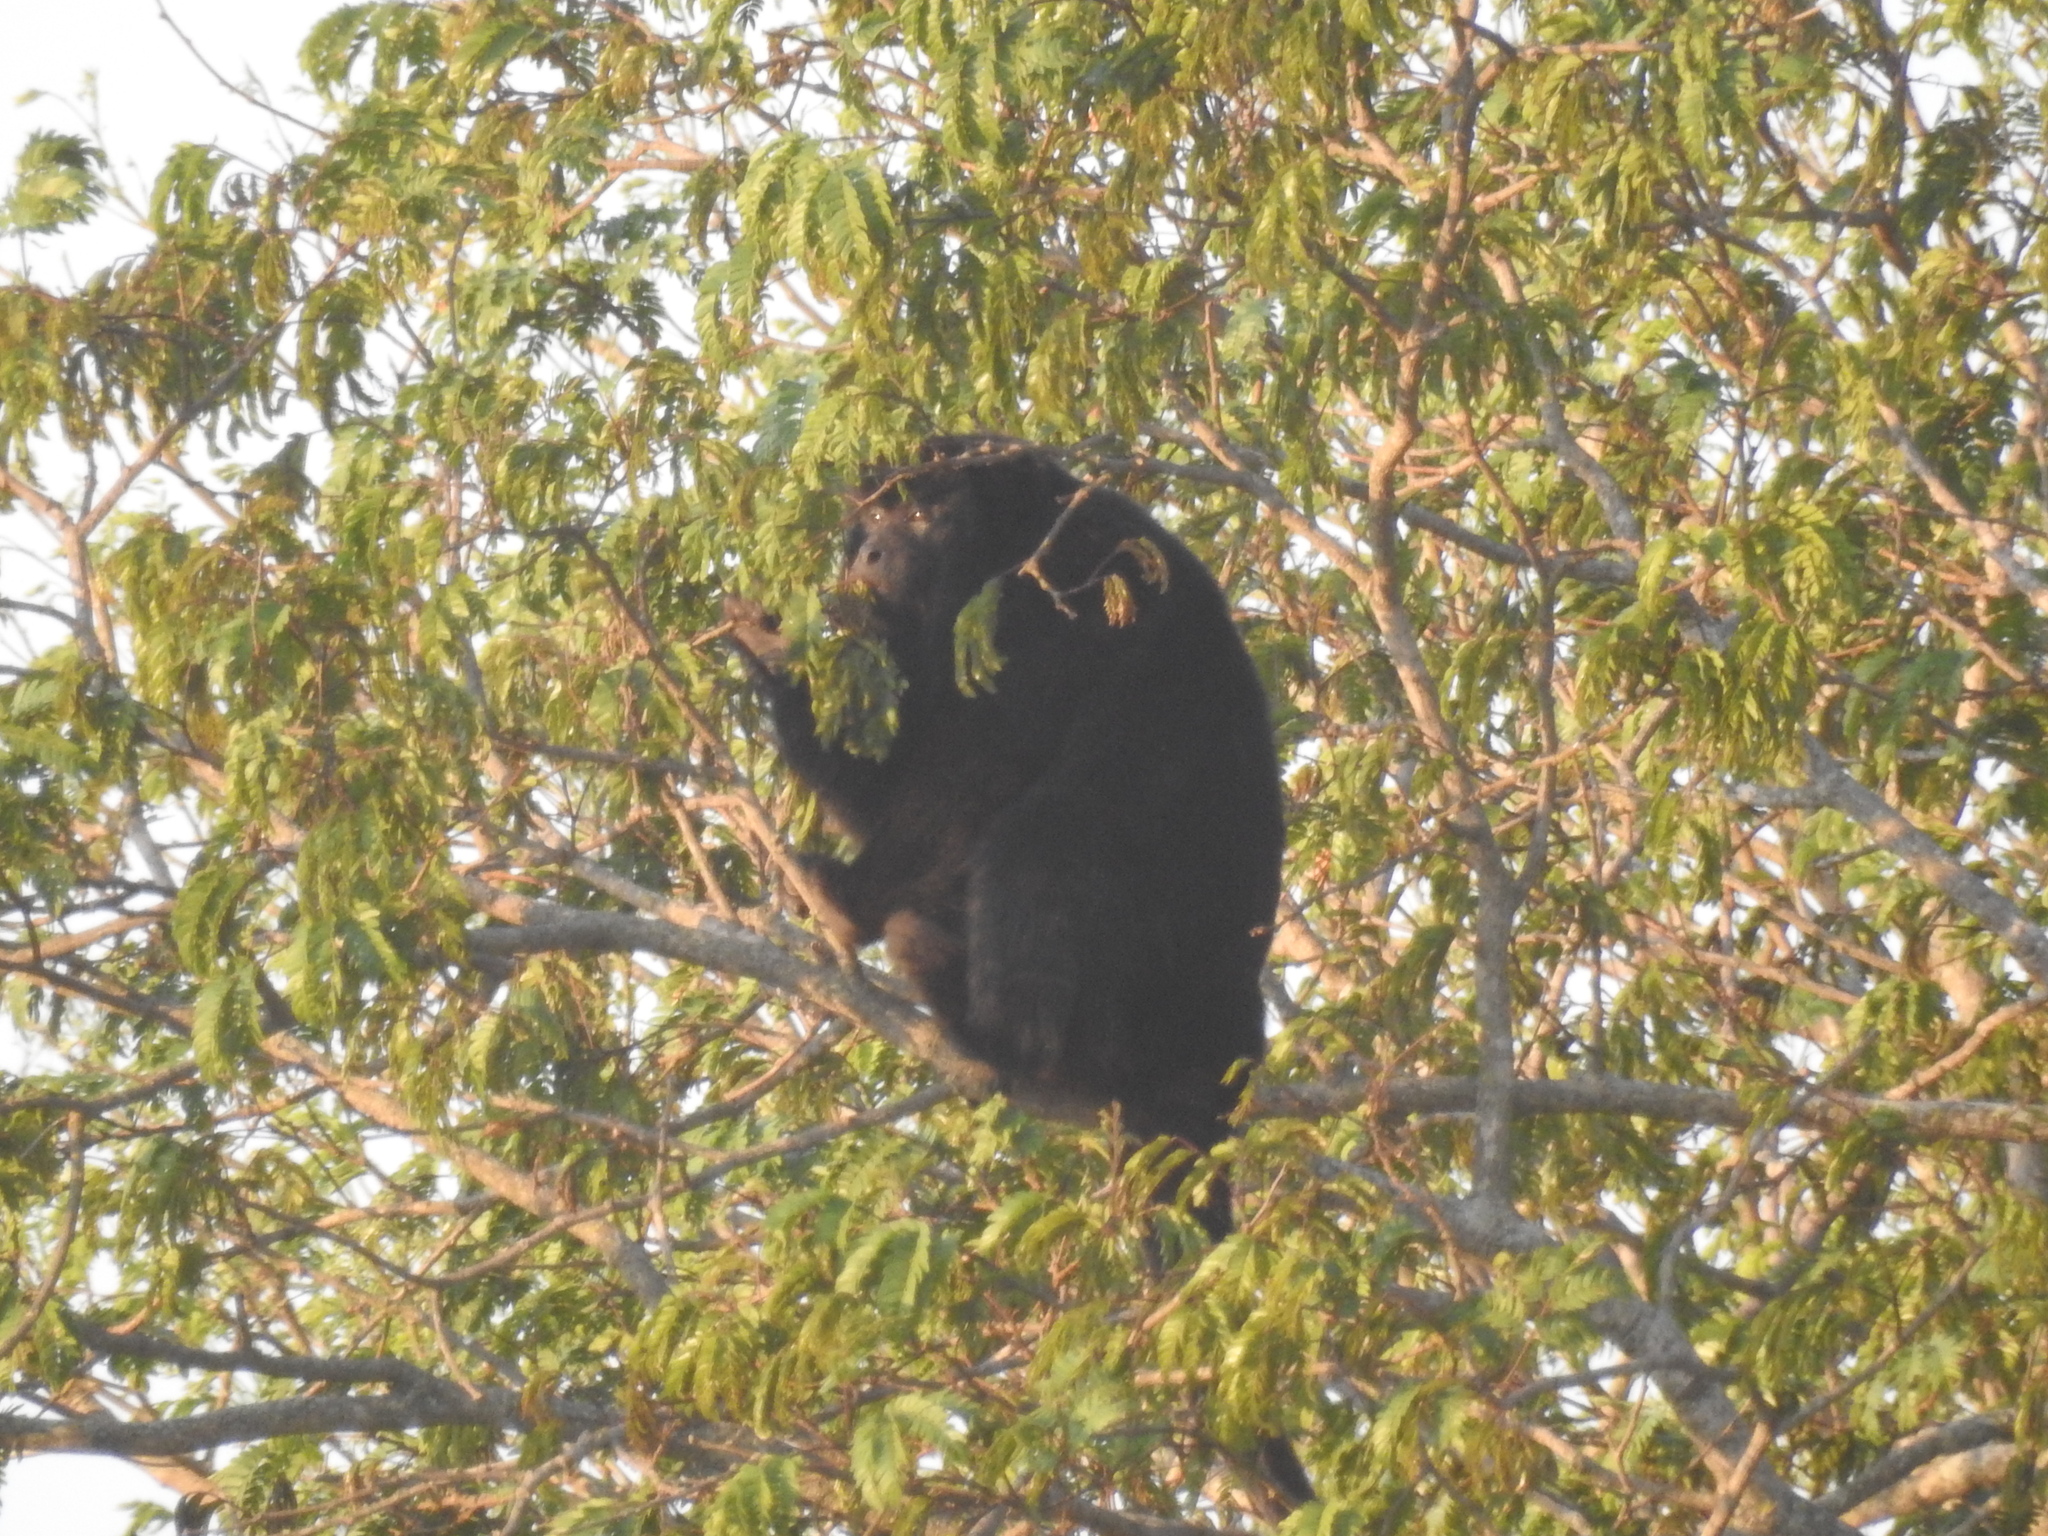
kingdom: Animalia
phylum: Chordata
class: Mammalia
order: Primates
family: Atelidae
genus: Alouatta
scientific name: Alouatta caraya
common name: Black howler
